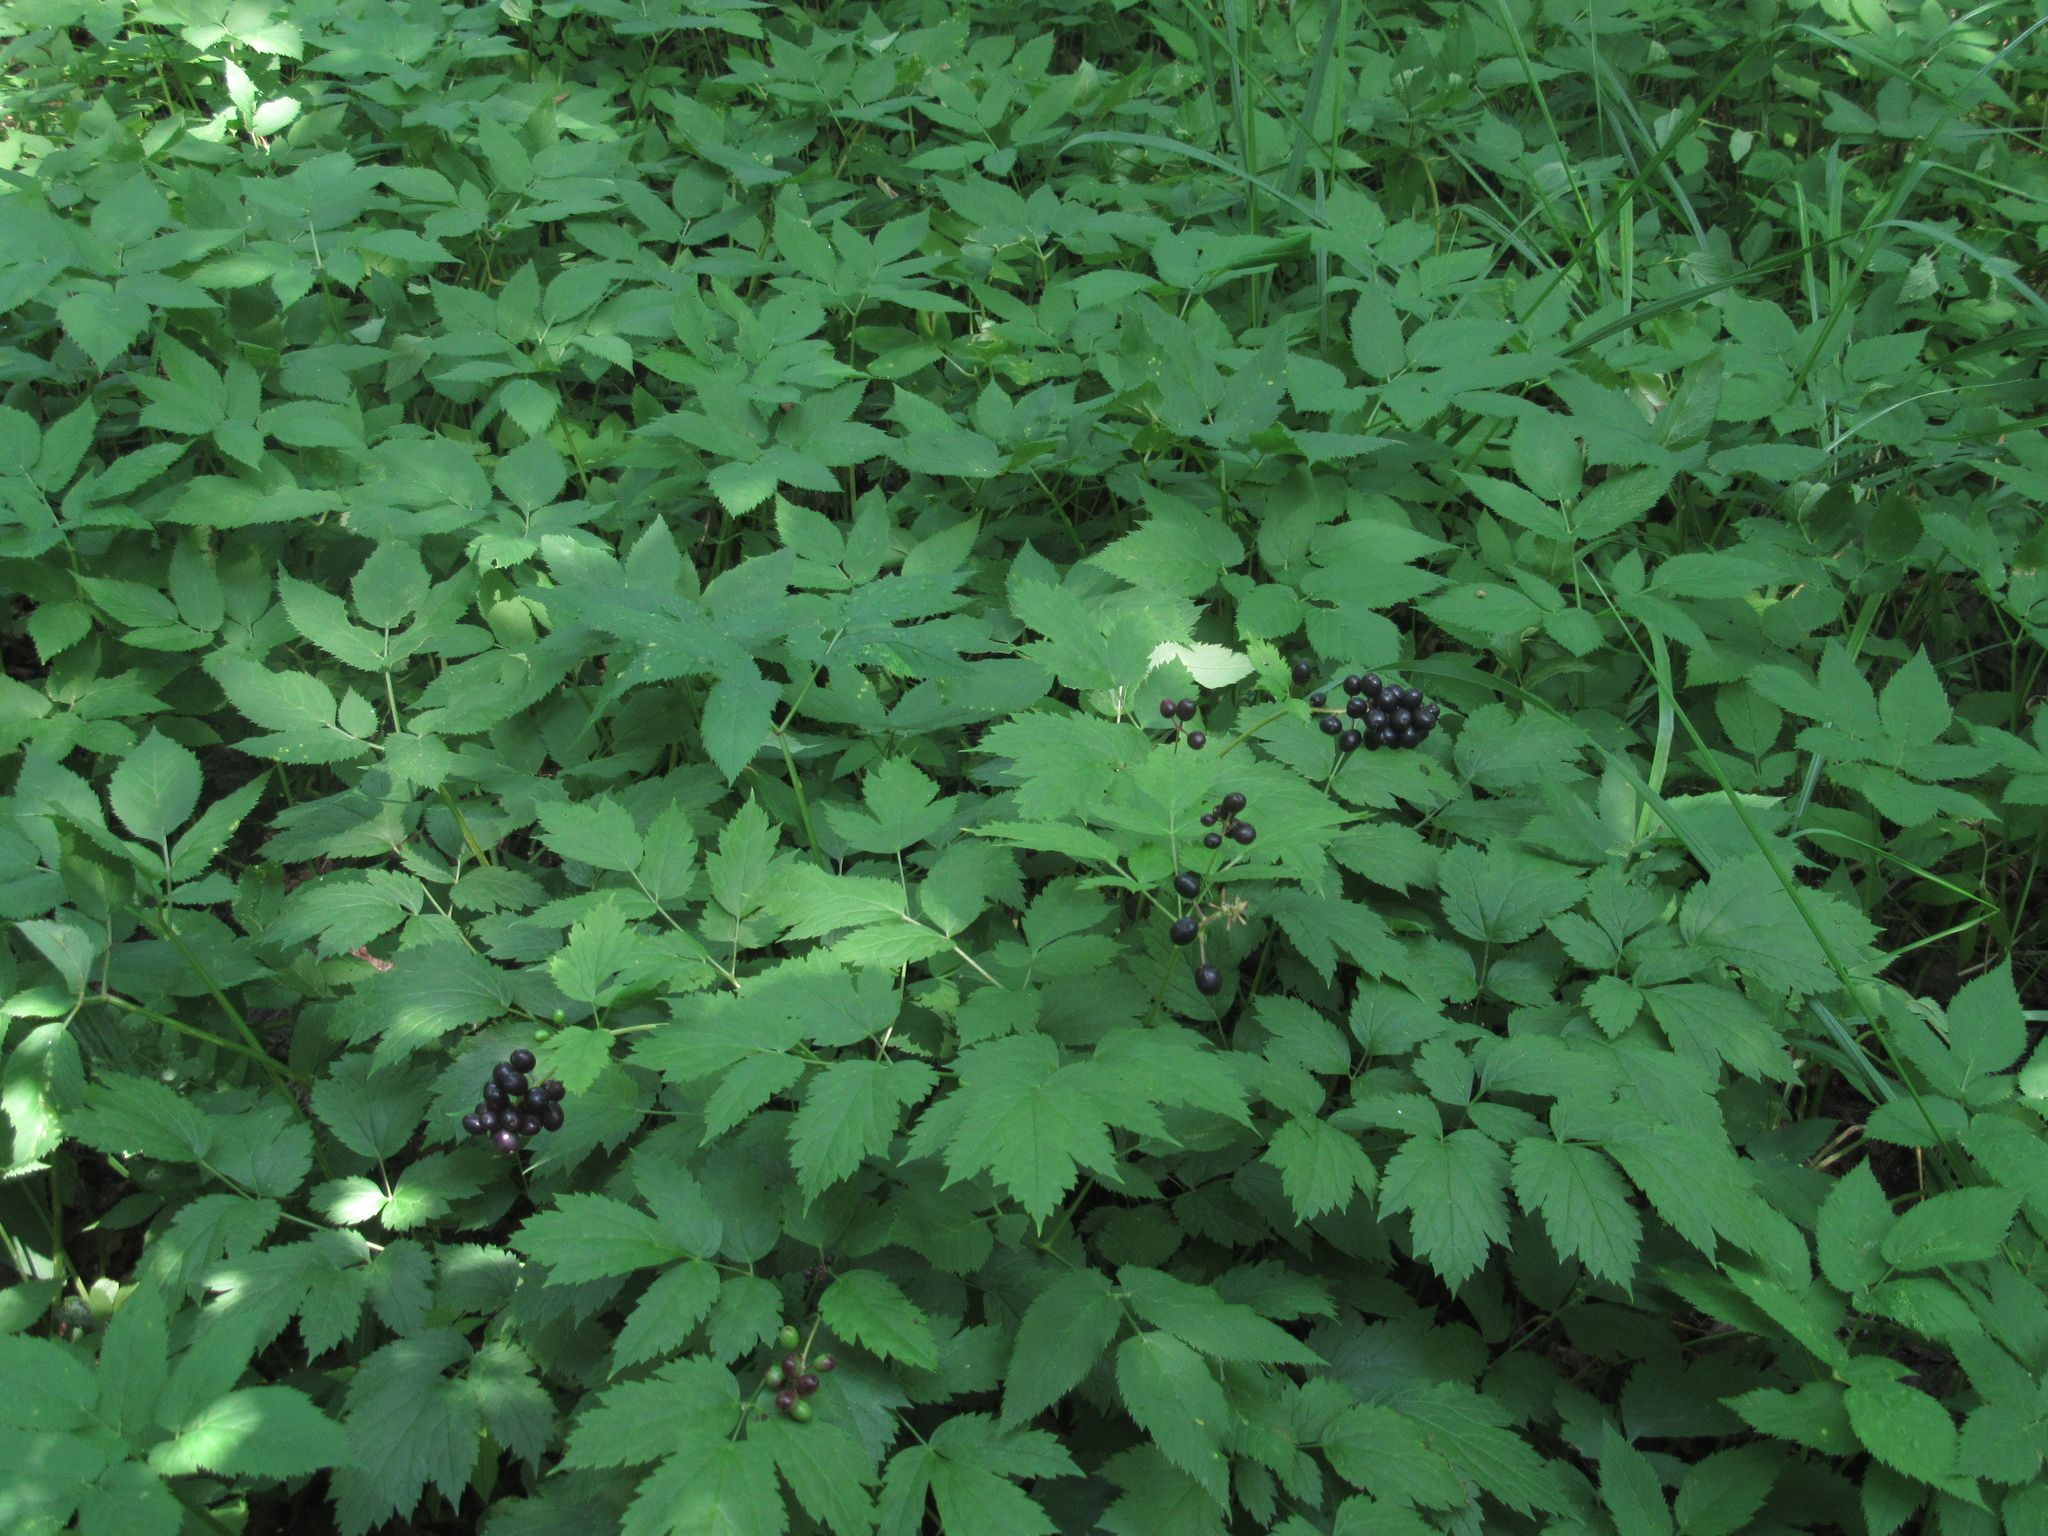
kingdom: Plantae
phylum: Tracheophyta
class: Magnoliopsida
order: Ranunculales
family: Ranunculaceae
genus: Actaea
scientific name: Actaea spicata
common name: Baneberry
